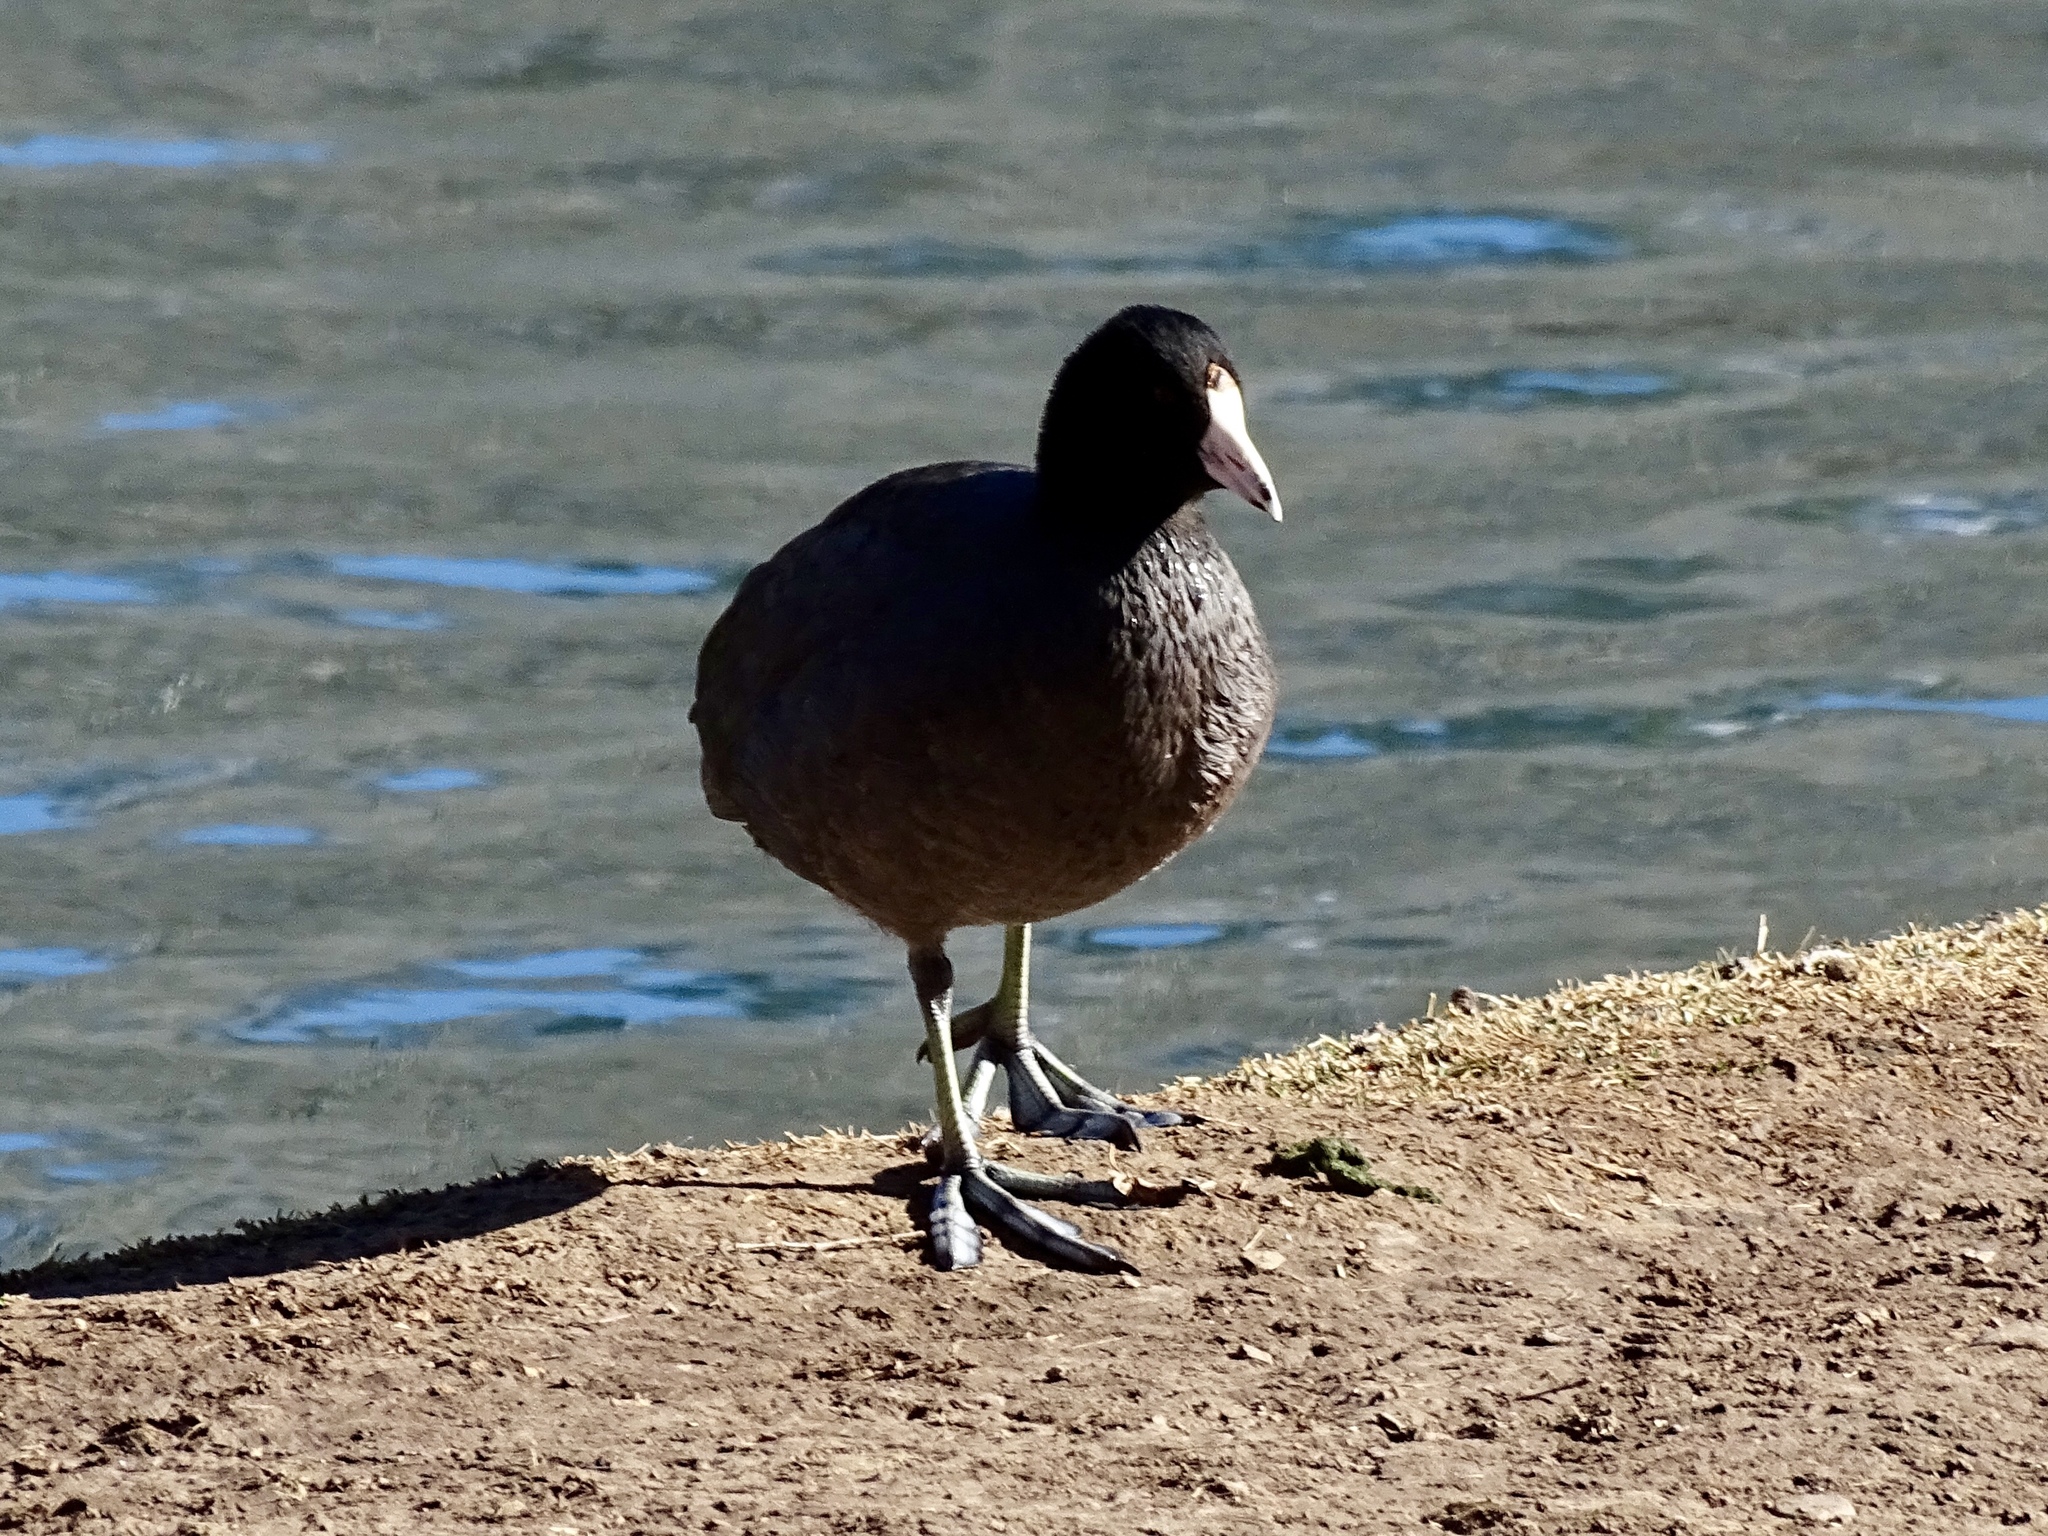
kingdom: Animalia
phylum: Chordata
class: Aves
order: Gruiformes
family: Rallidae
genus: Fulica
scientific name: Fulica americana
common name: American coot
